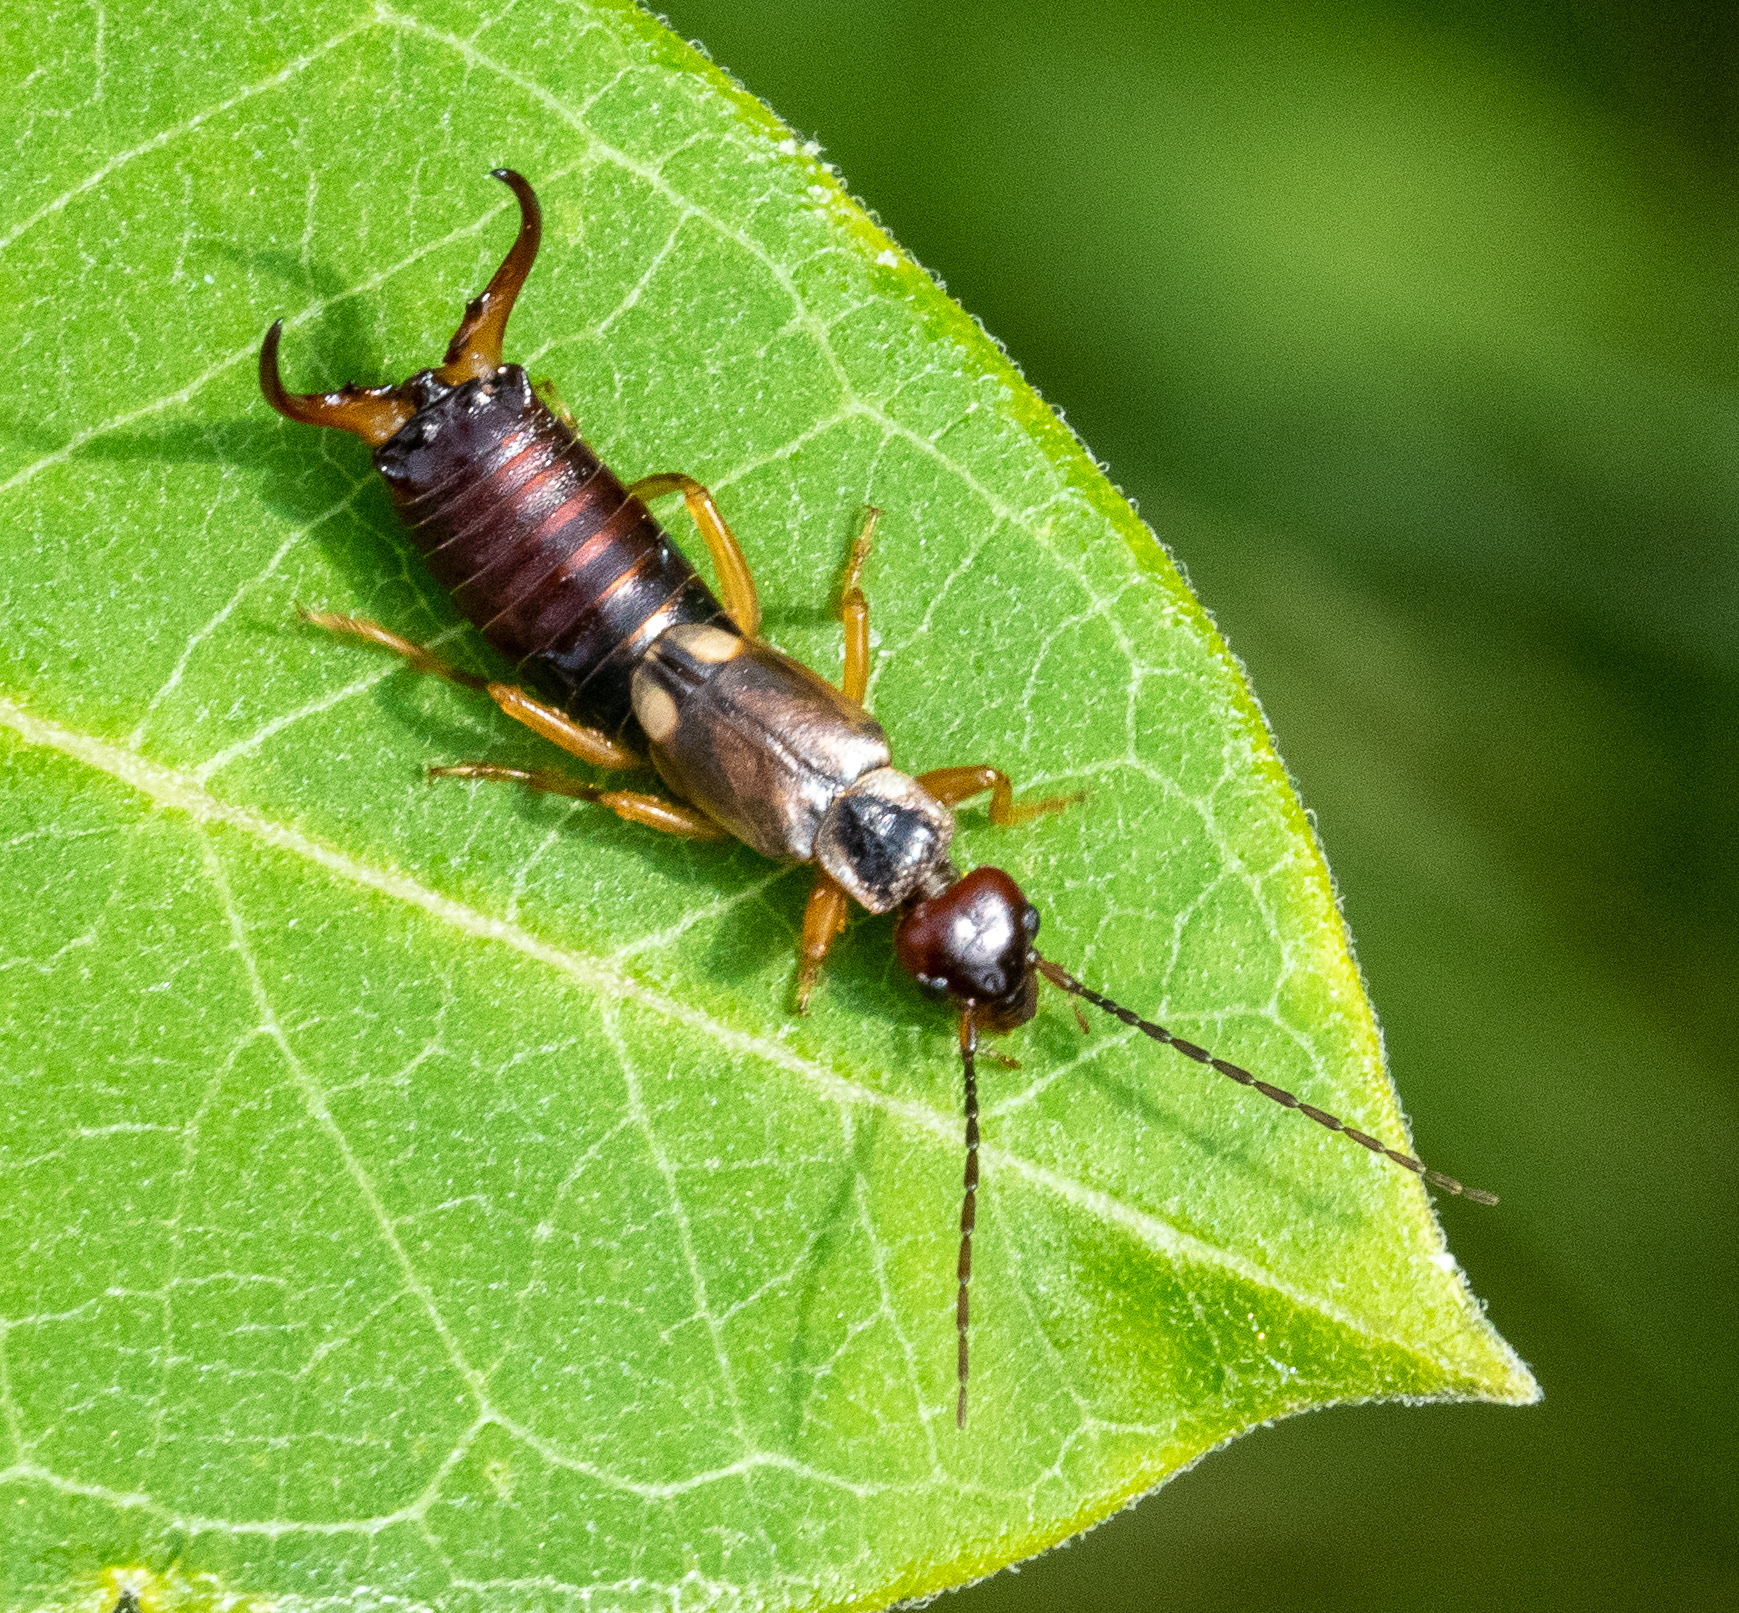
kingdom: Animalia
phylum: Arthropoda
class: Insecta
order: Dermaptera
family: Forficulidae
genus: Forficula
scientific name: Forficula
